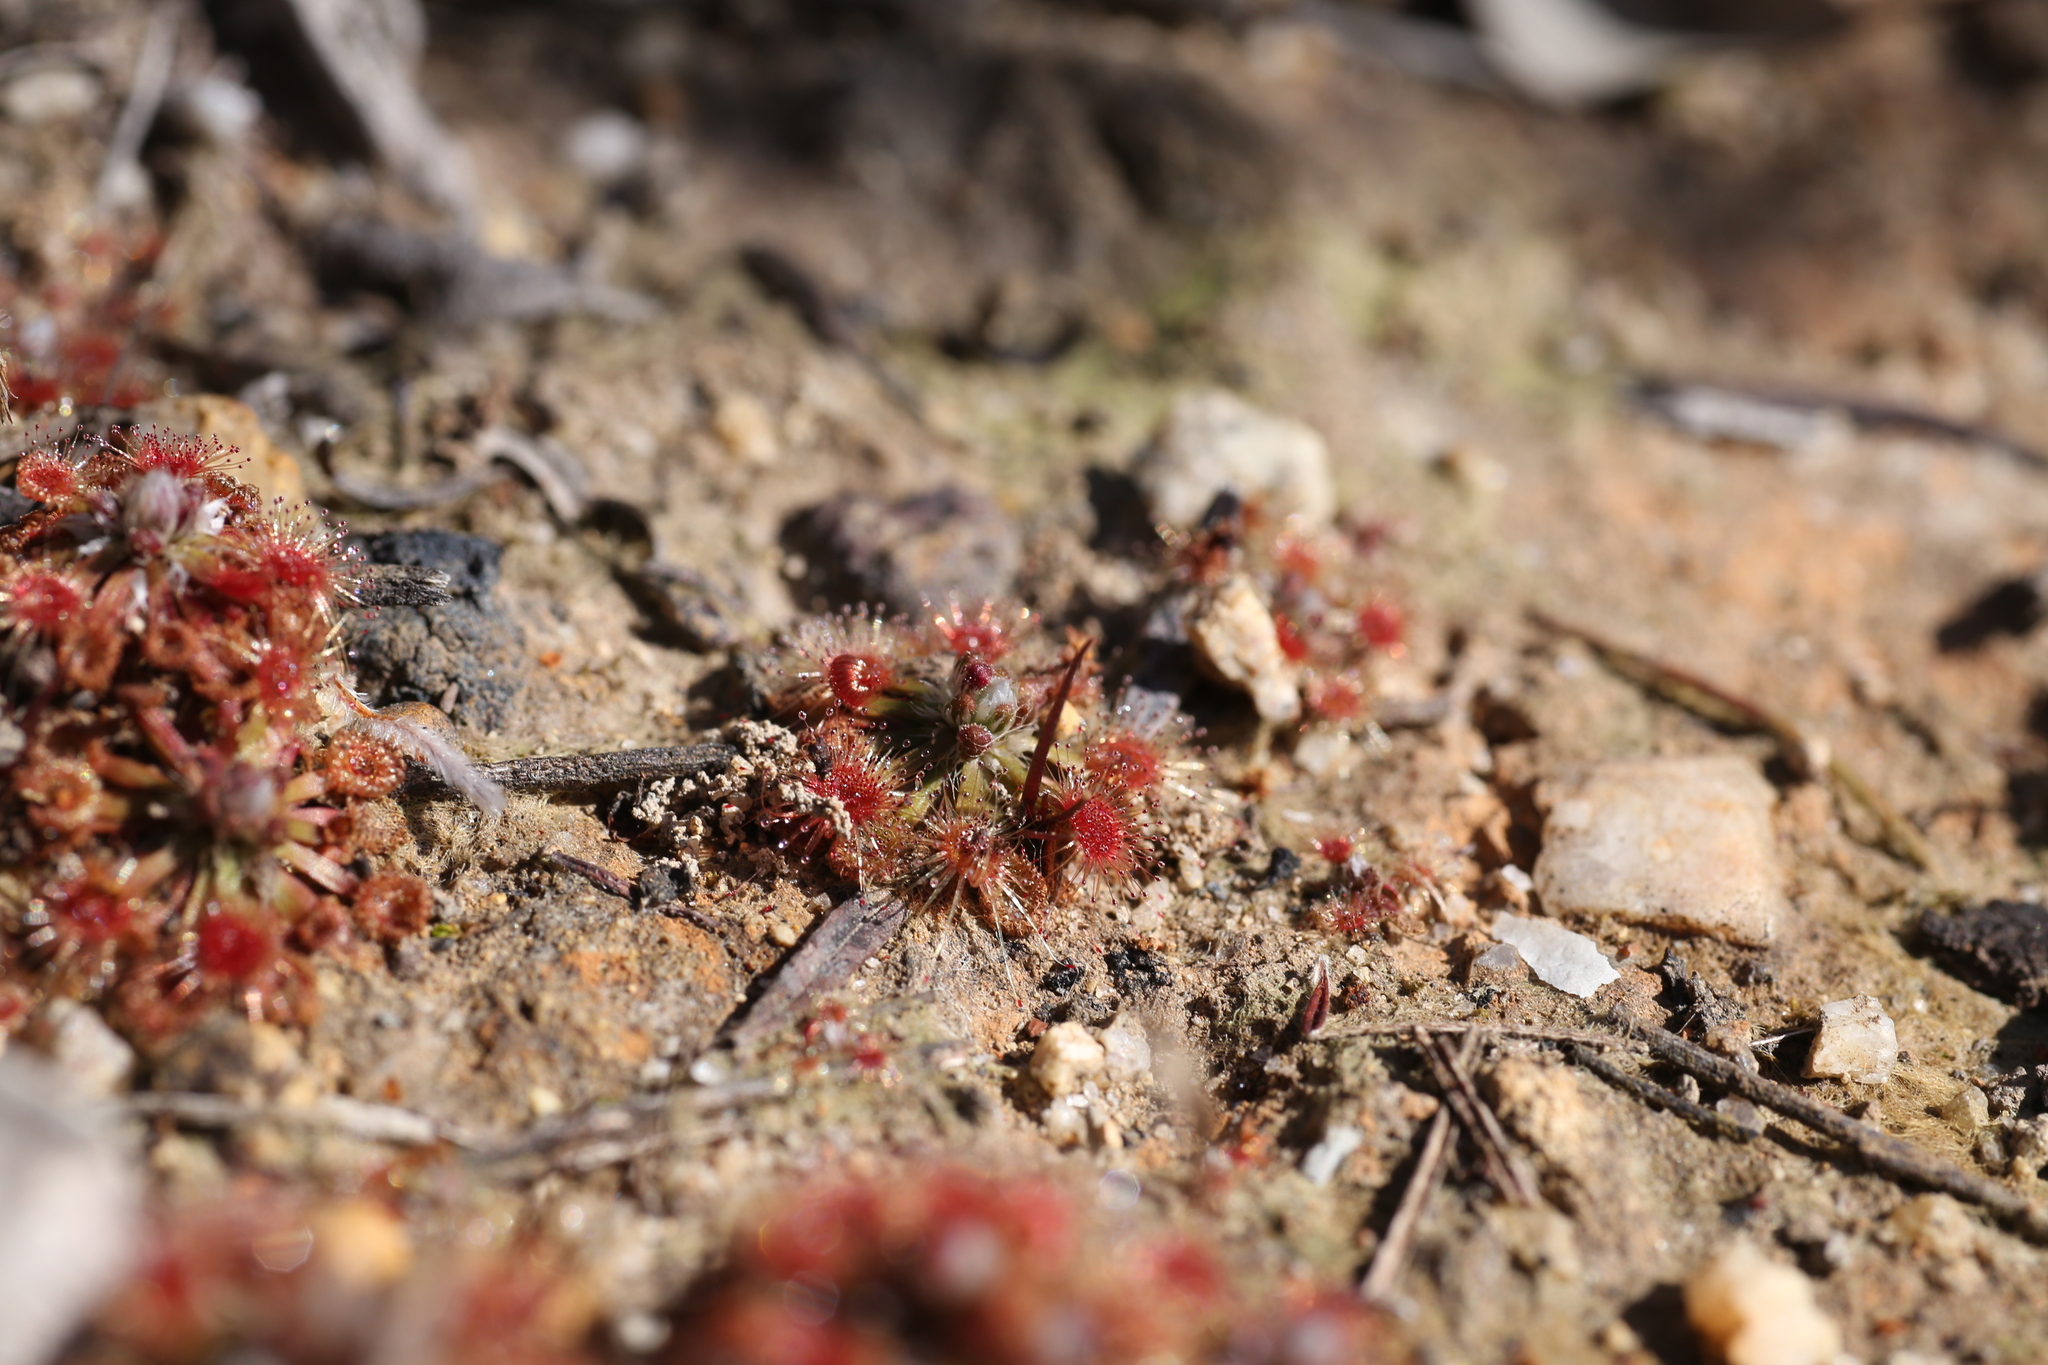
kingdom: Plantae
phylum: Tracheophyta
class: Magnoliopsida
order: Caryophyllales
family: Droseraceae
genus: Drosera
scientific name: Drosera miniata
